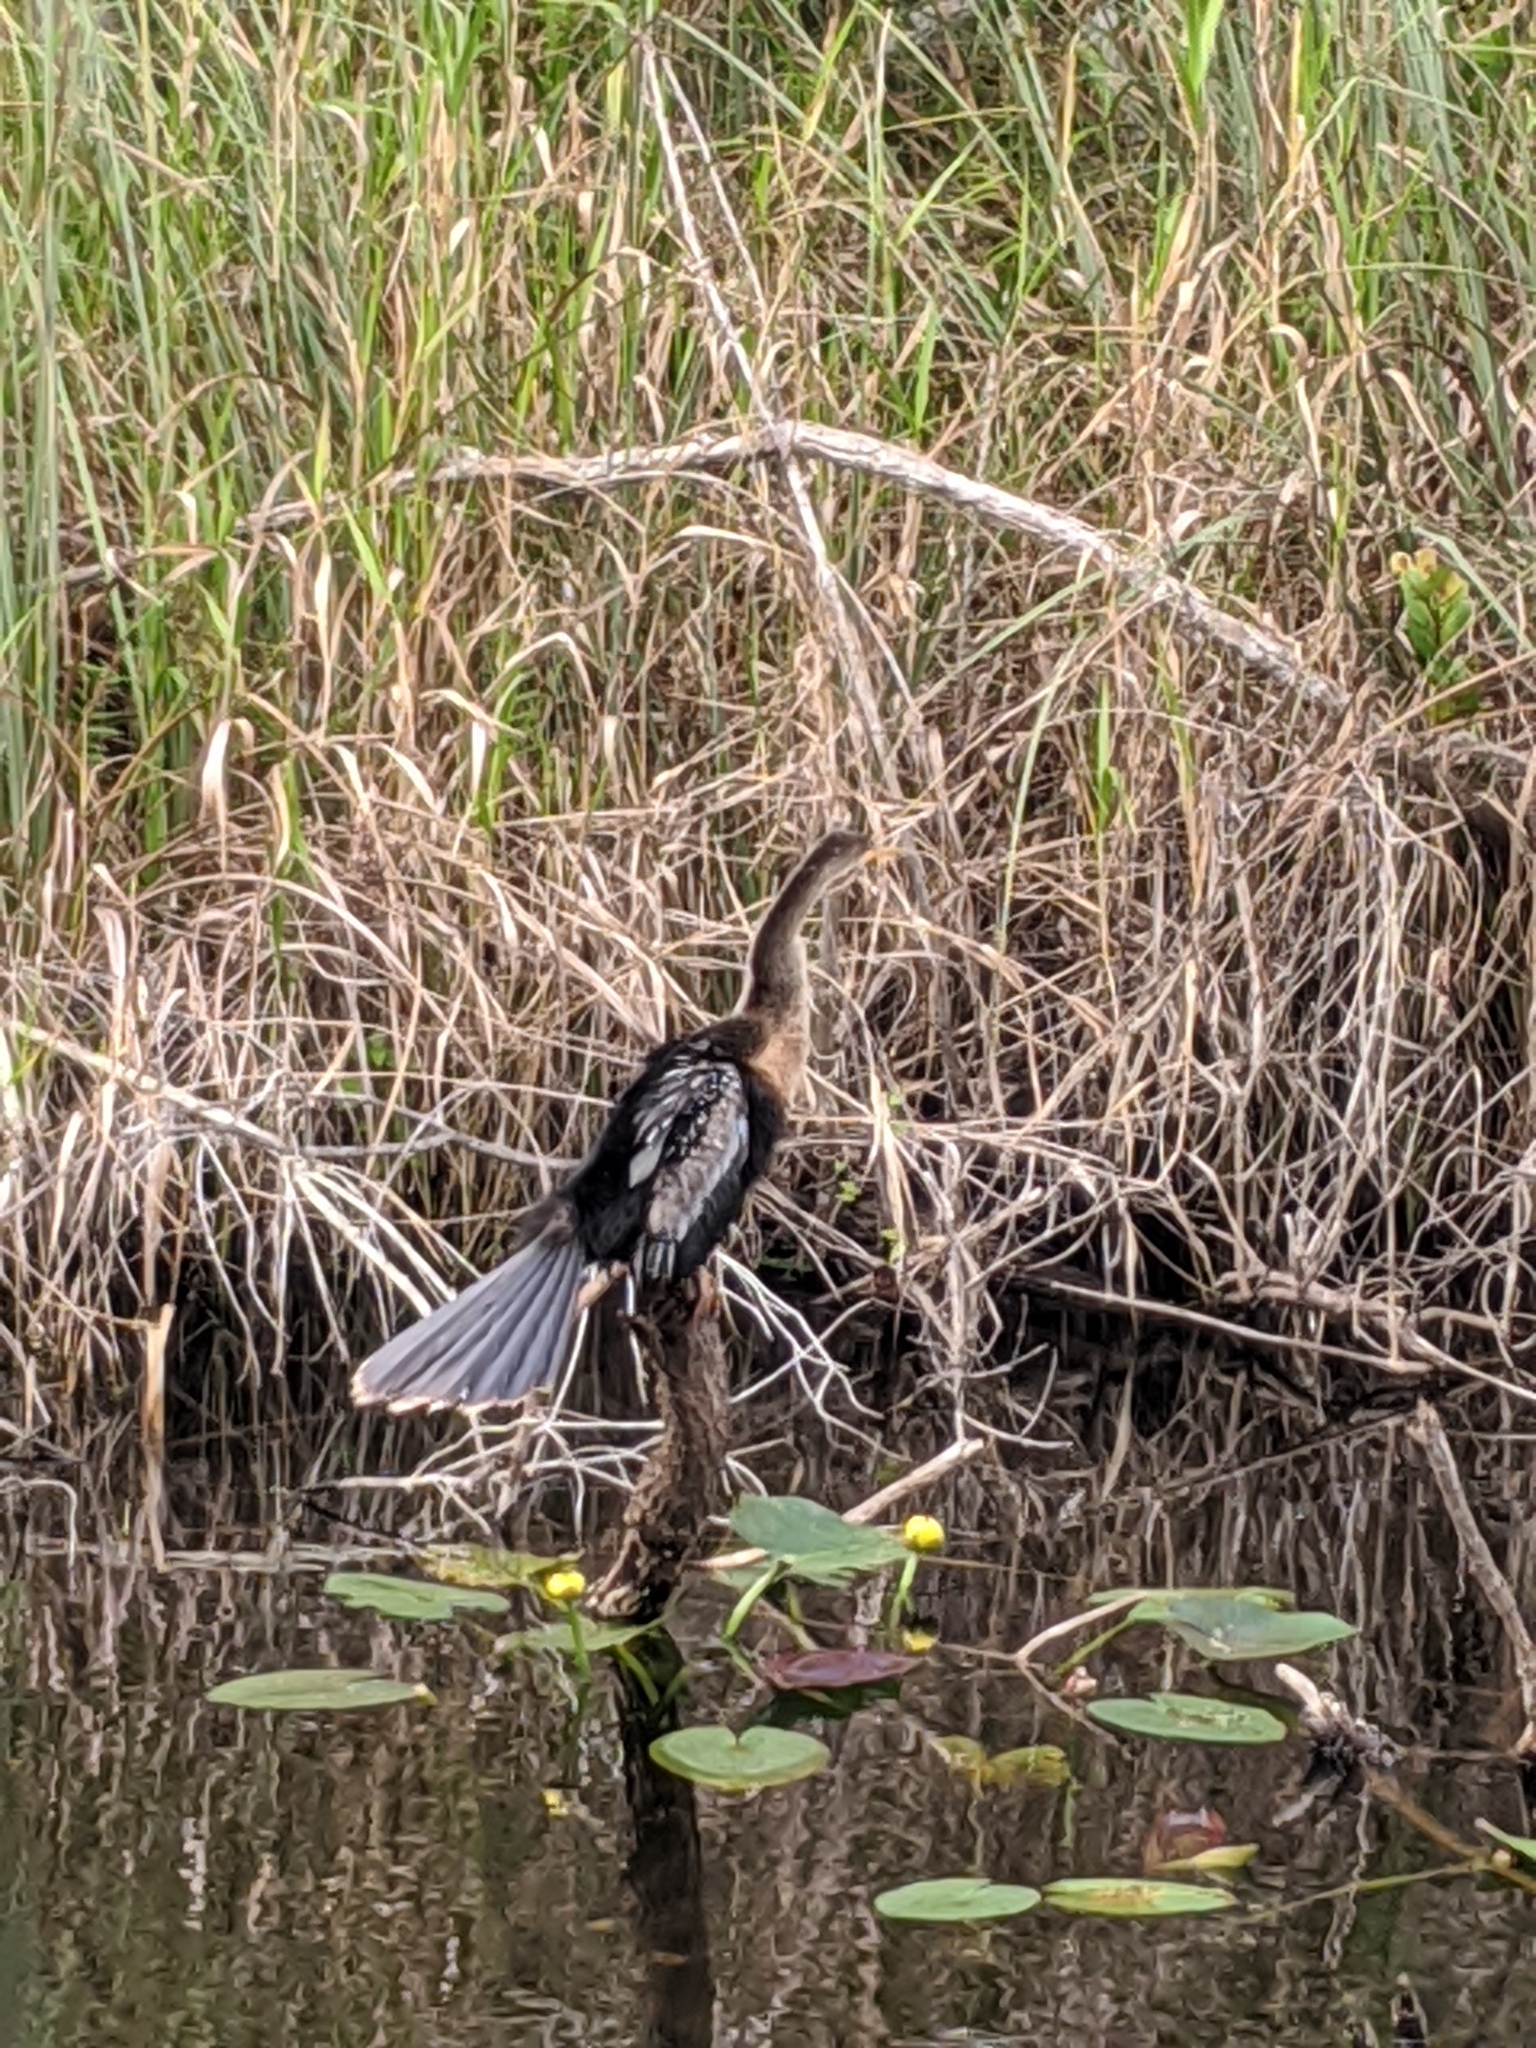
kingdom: Animalia
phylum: Chordata
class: Aves
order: Suliformes
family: Anhingidae
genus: Anhinga
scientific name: Anhinga anhinga
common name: Anhinga
